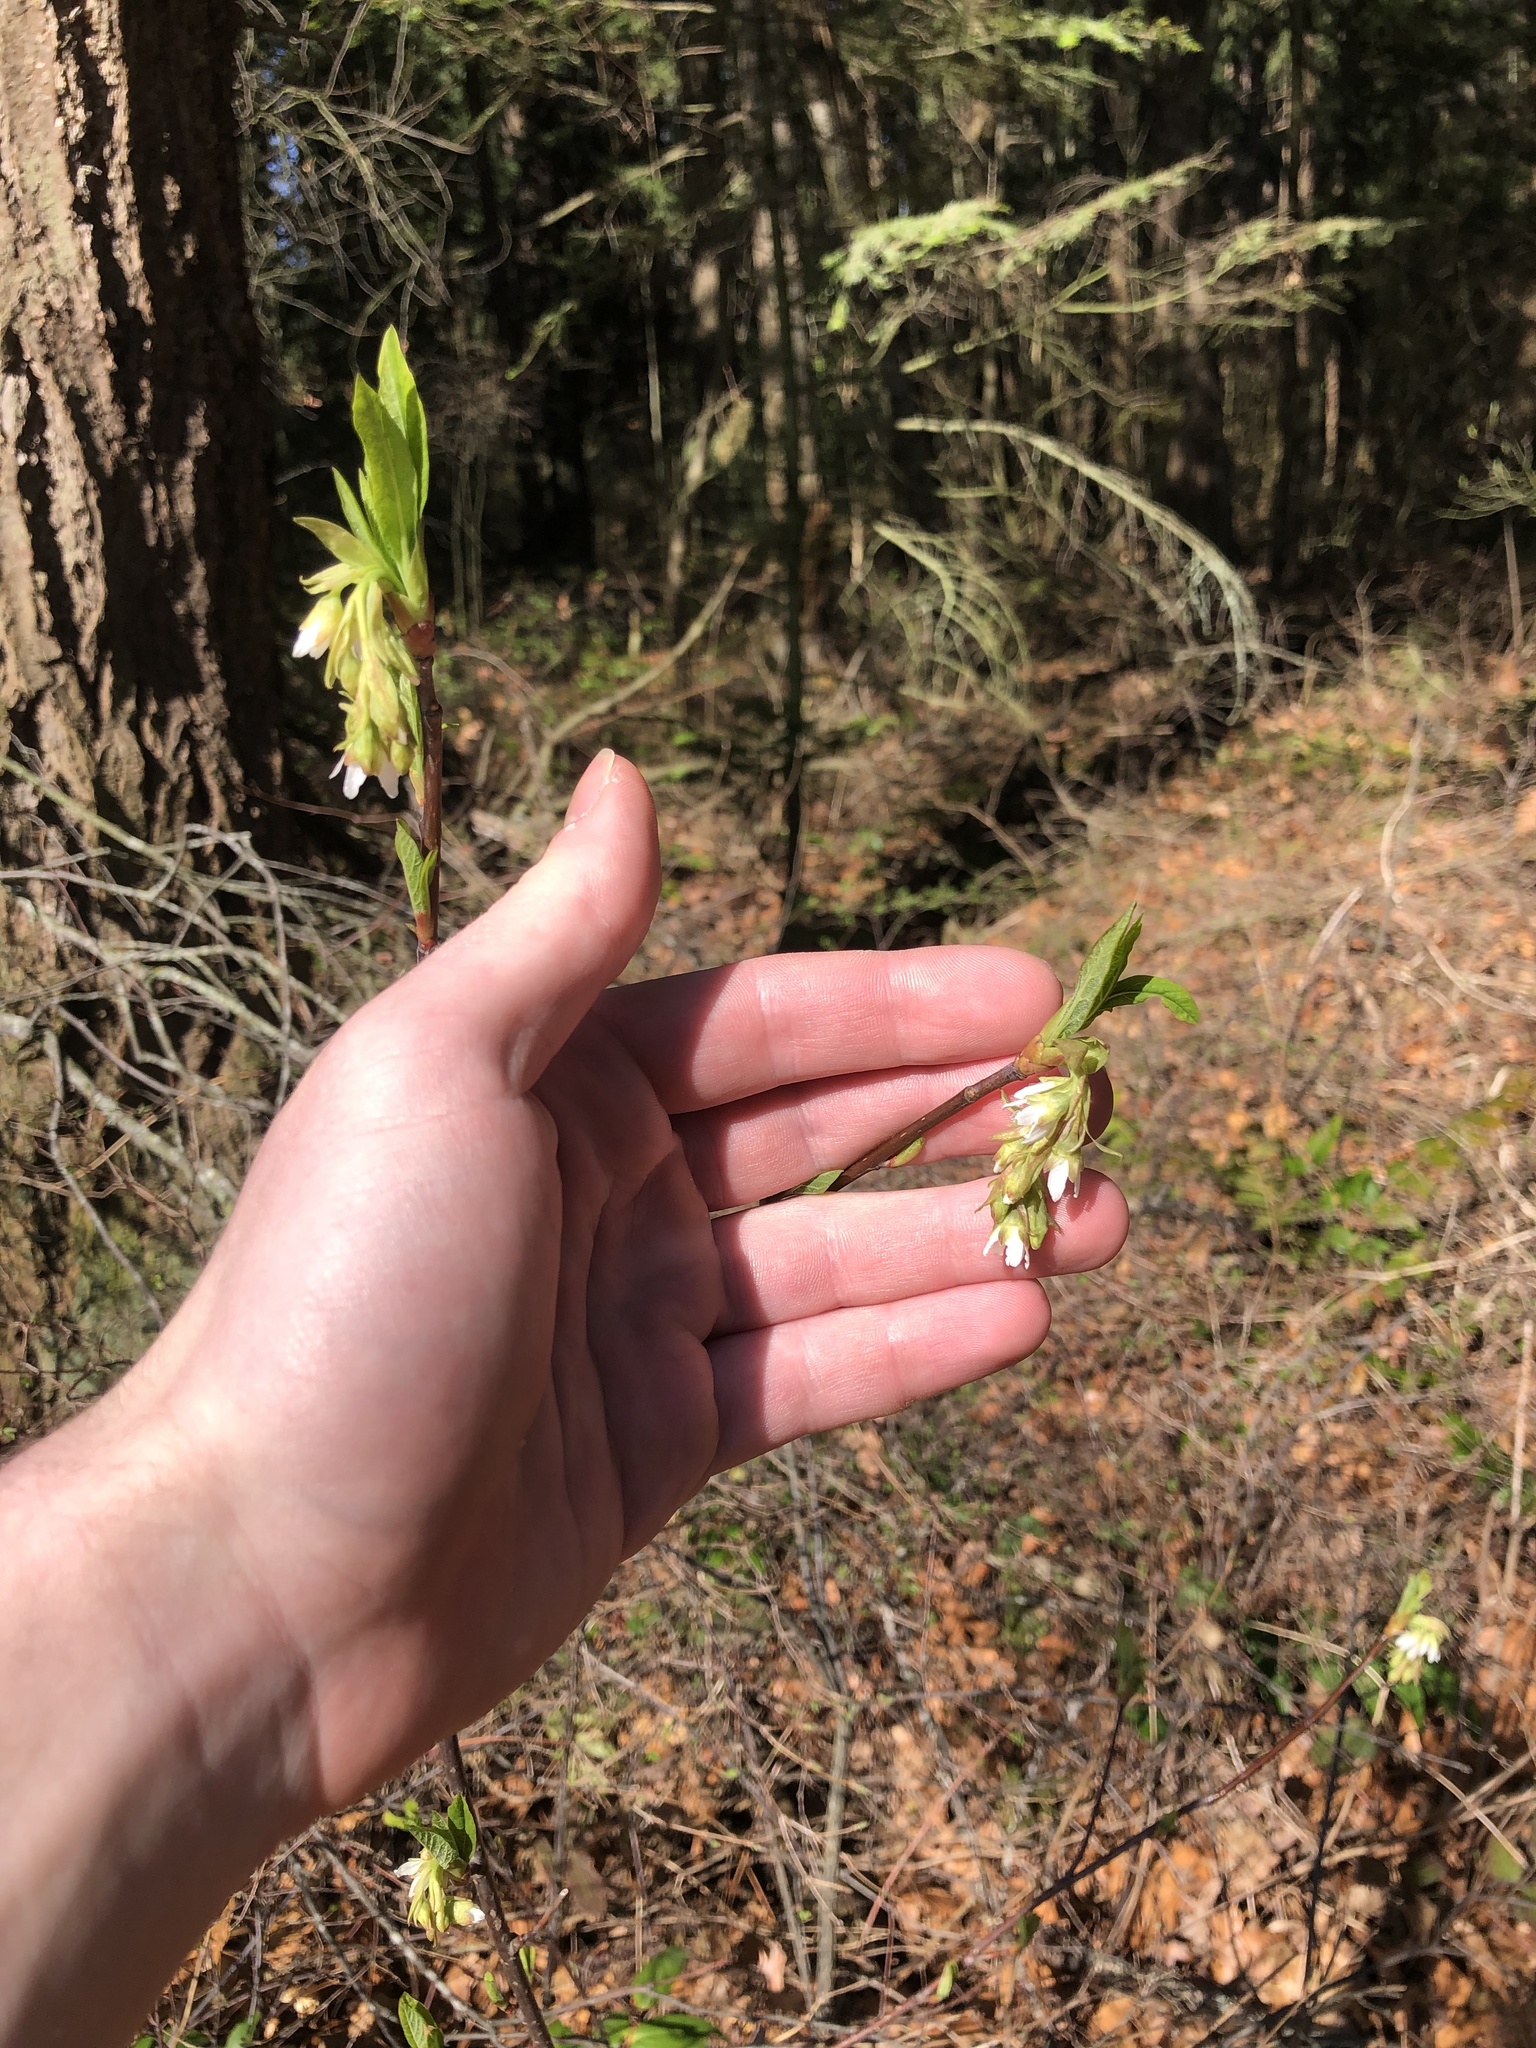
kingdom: Plantae
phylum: Tracheophyta
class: Magnoliopsida
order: Rosales
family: Rosaceae
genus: Oemleria
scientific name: Oemleria cerasiformis
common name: Osoberry
